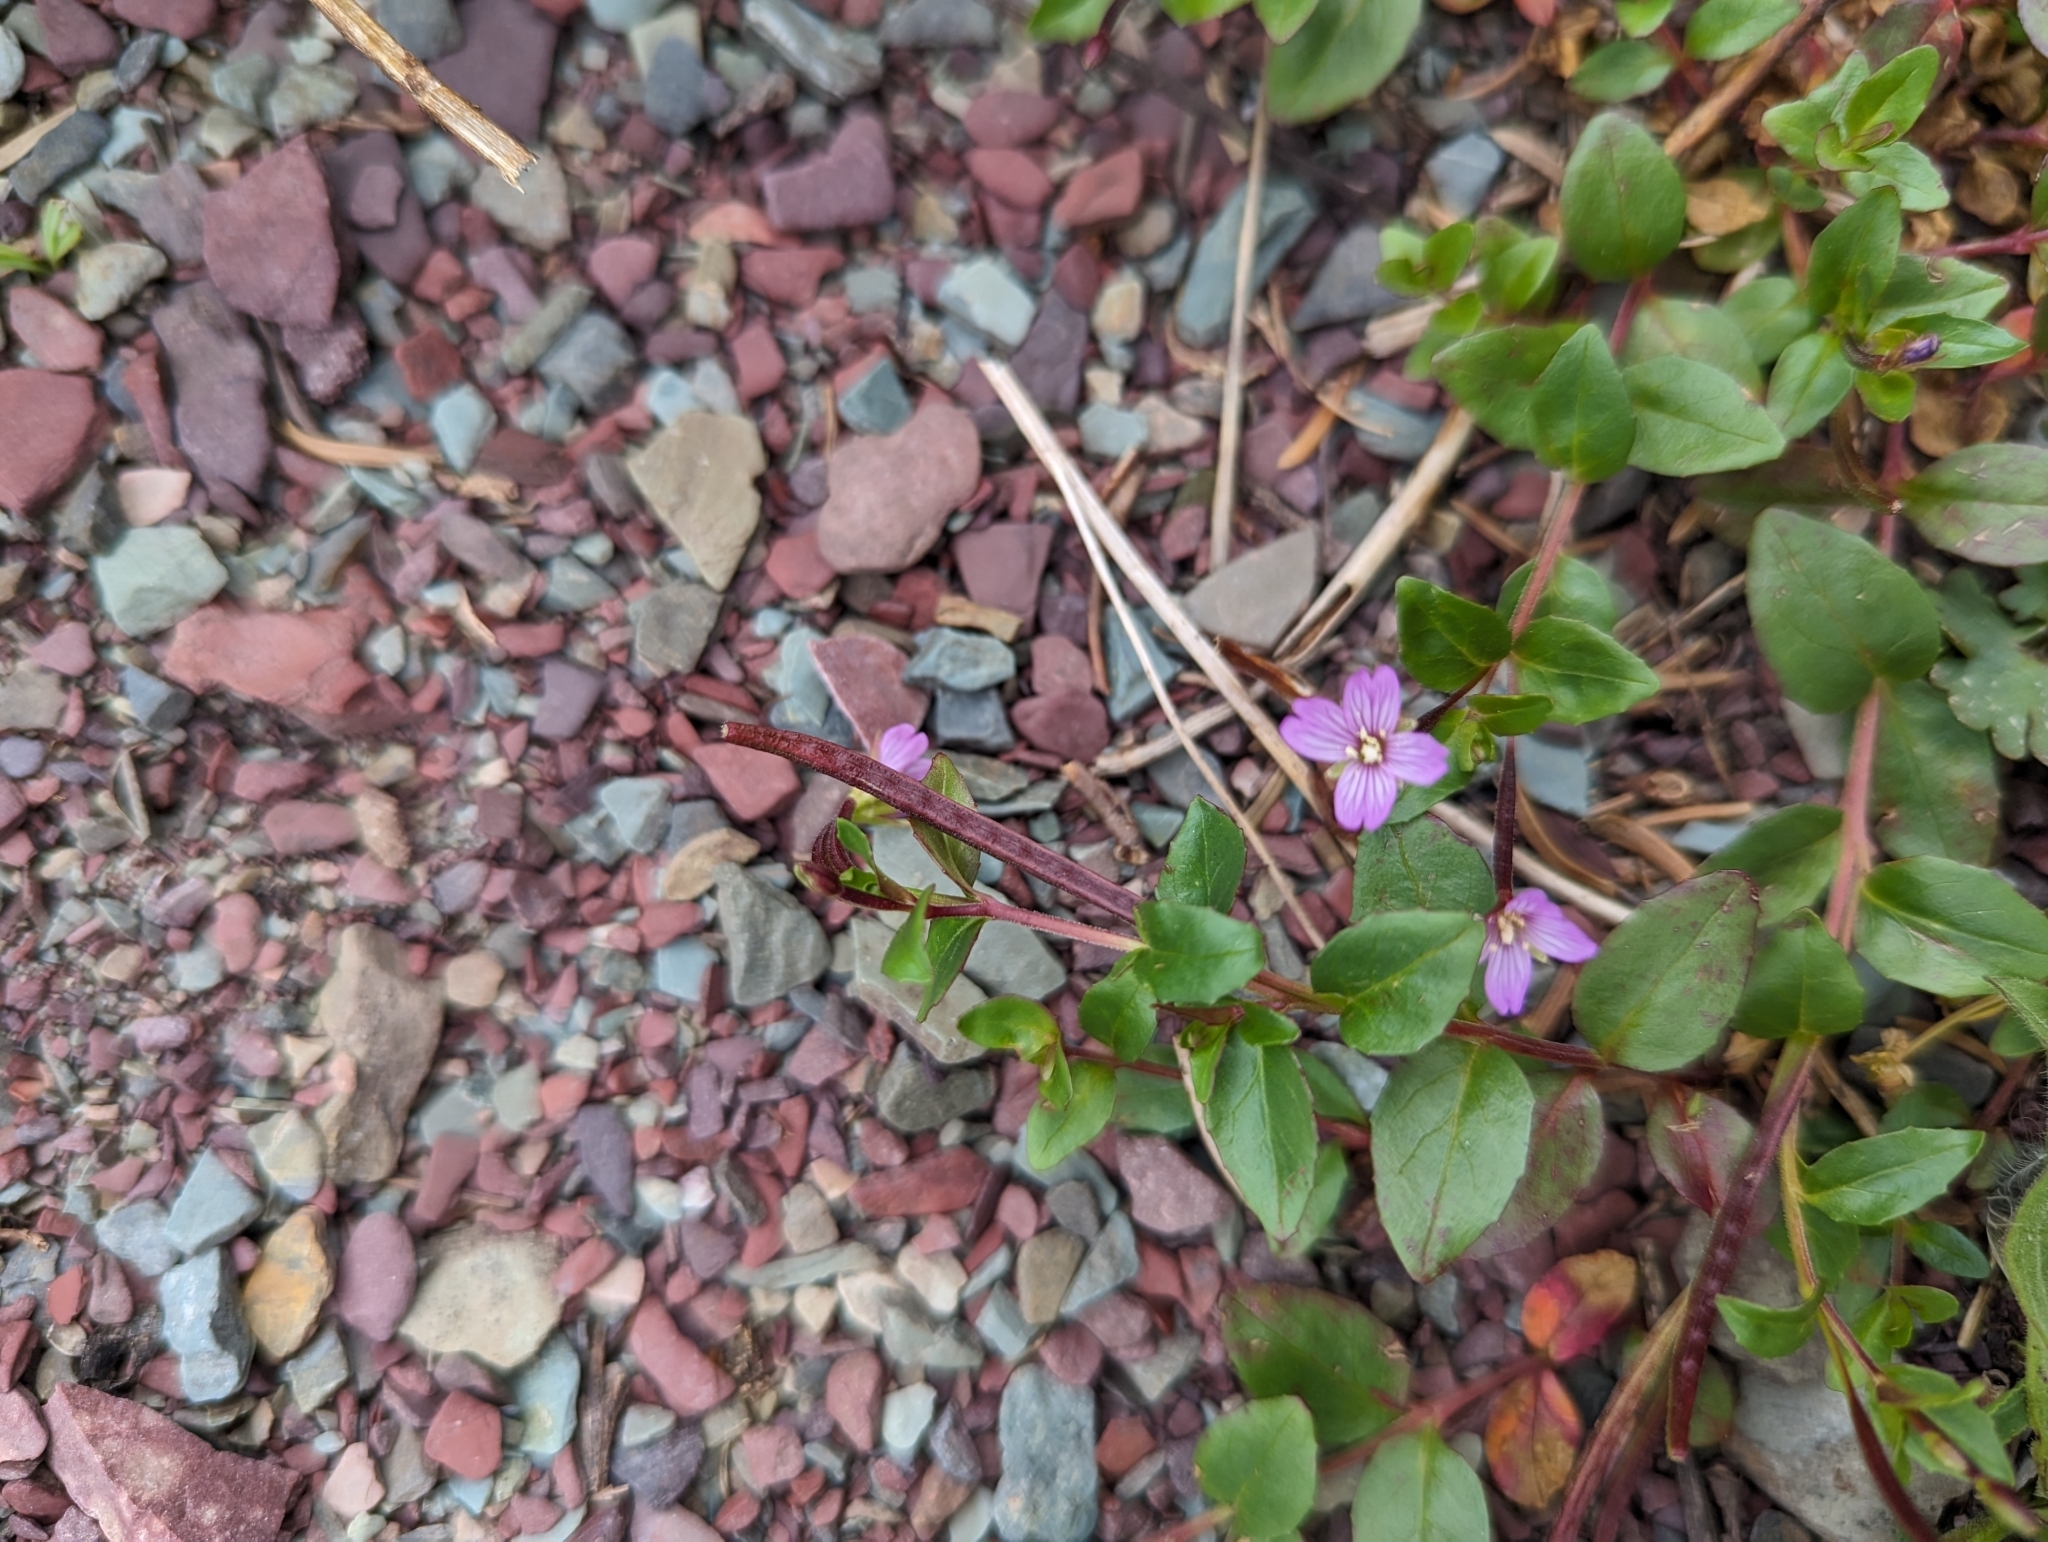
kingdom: Plantae
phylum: Tracheophyta
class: Magnoliopsida
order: Myrtales
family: Onagraceae
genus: Epilobium
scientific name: Epilobium anagallidifolium
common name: Alpine willowherb
